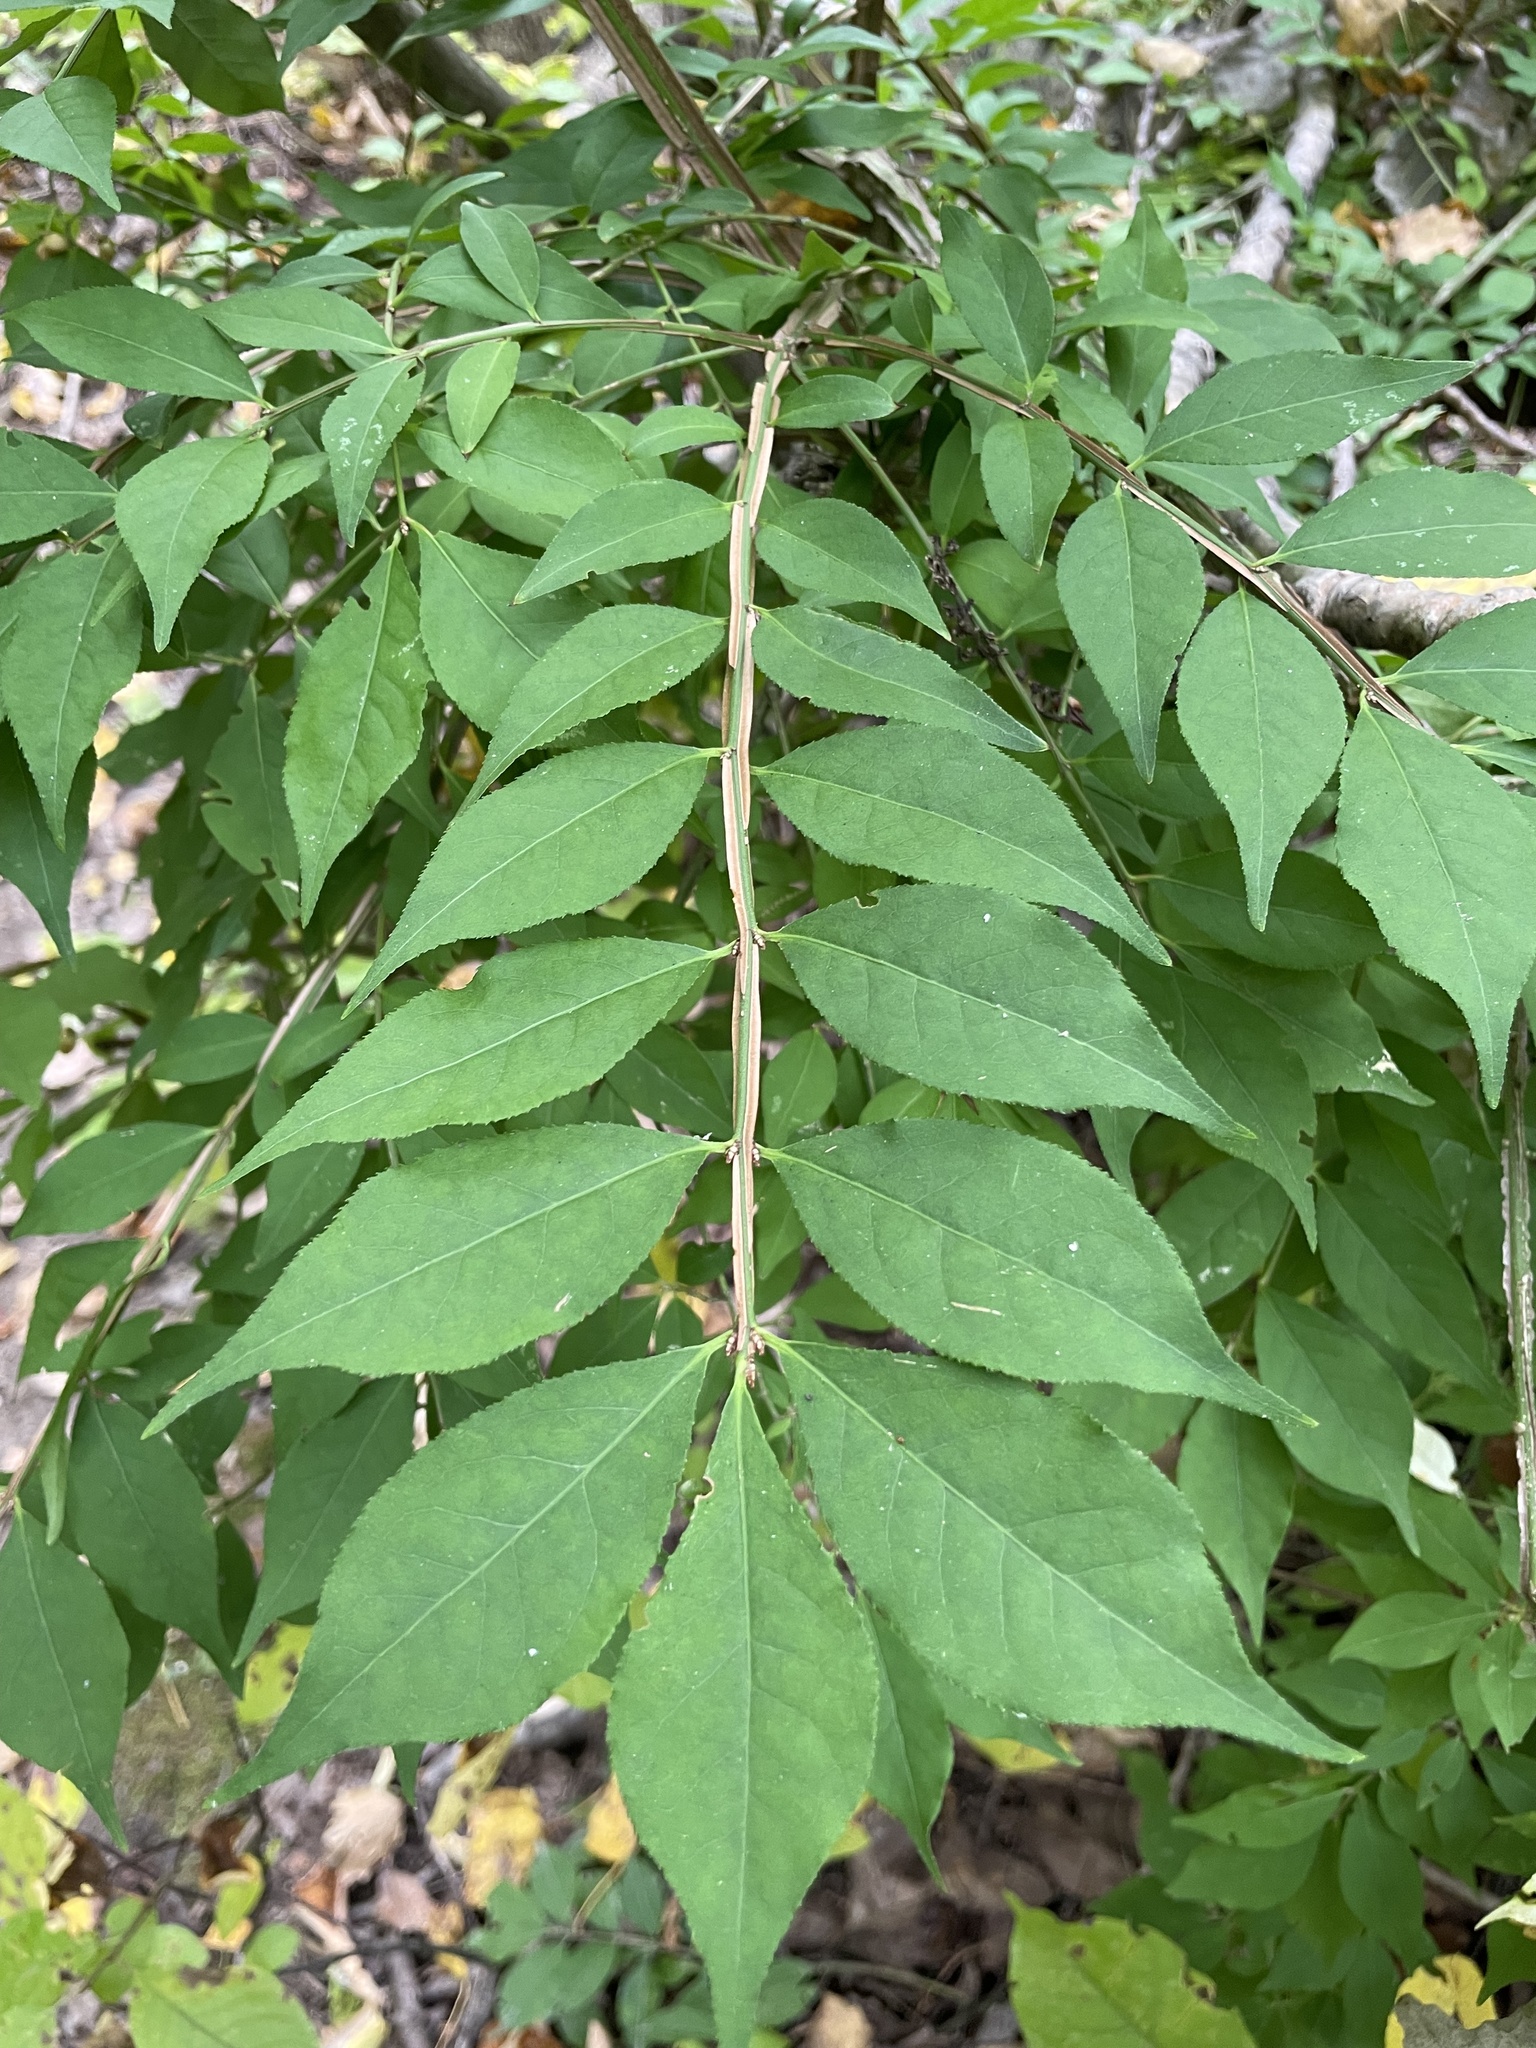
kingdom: Plantae
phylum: Tracheophyta
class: Magnoliopsida
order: Celastrales
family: Celastraceae
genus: Euonymus
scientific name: Euonymus alatus
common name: Winged euonymus
